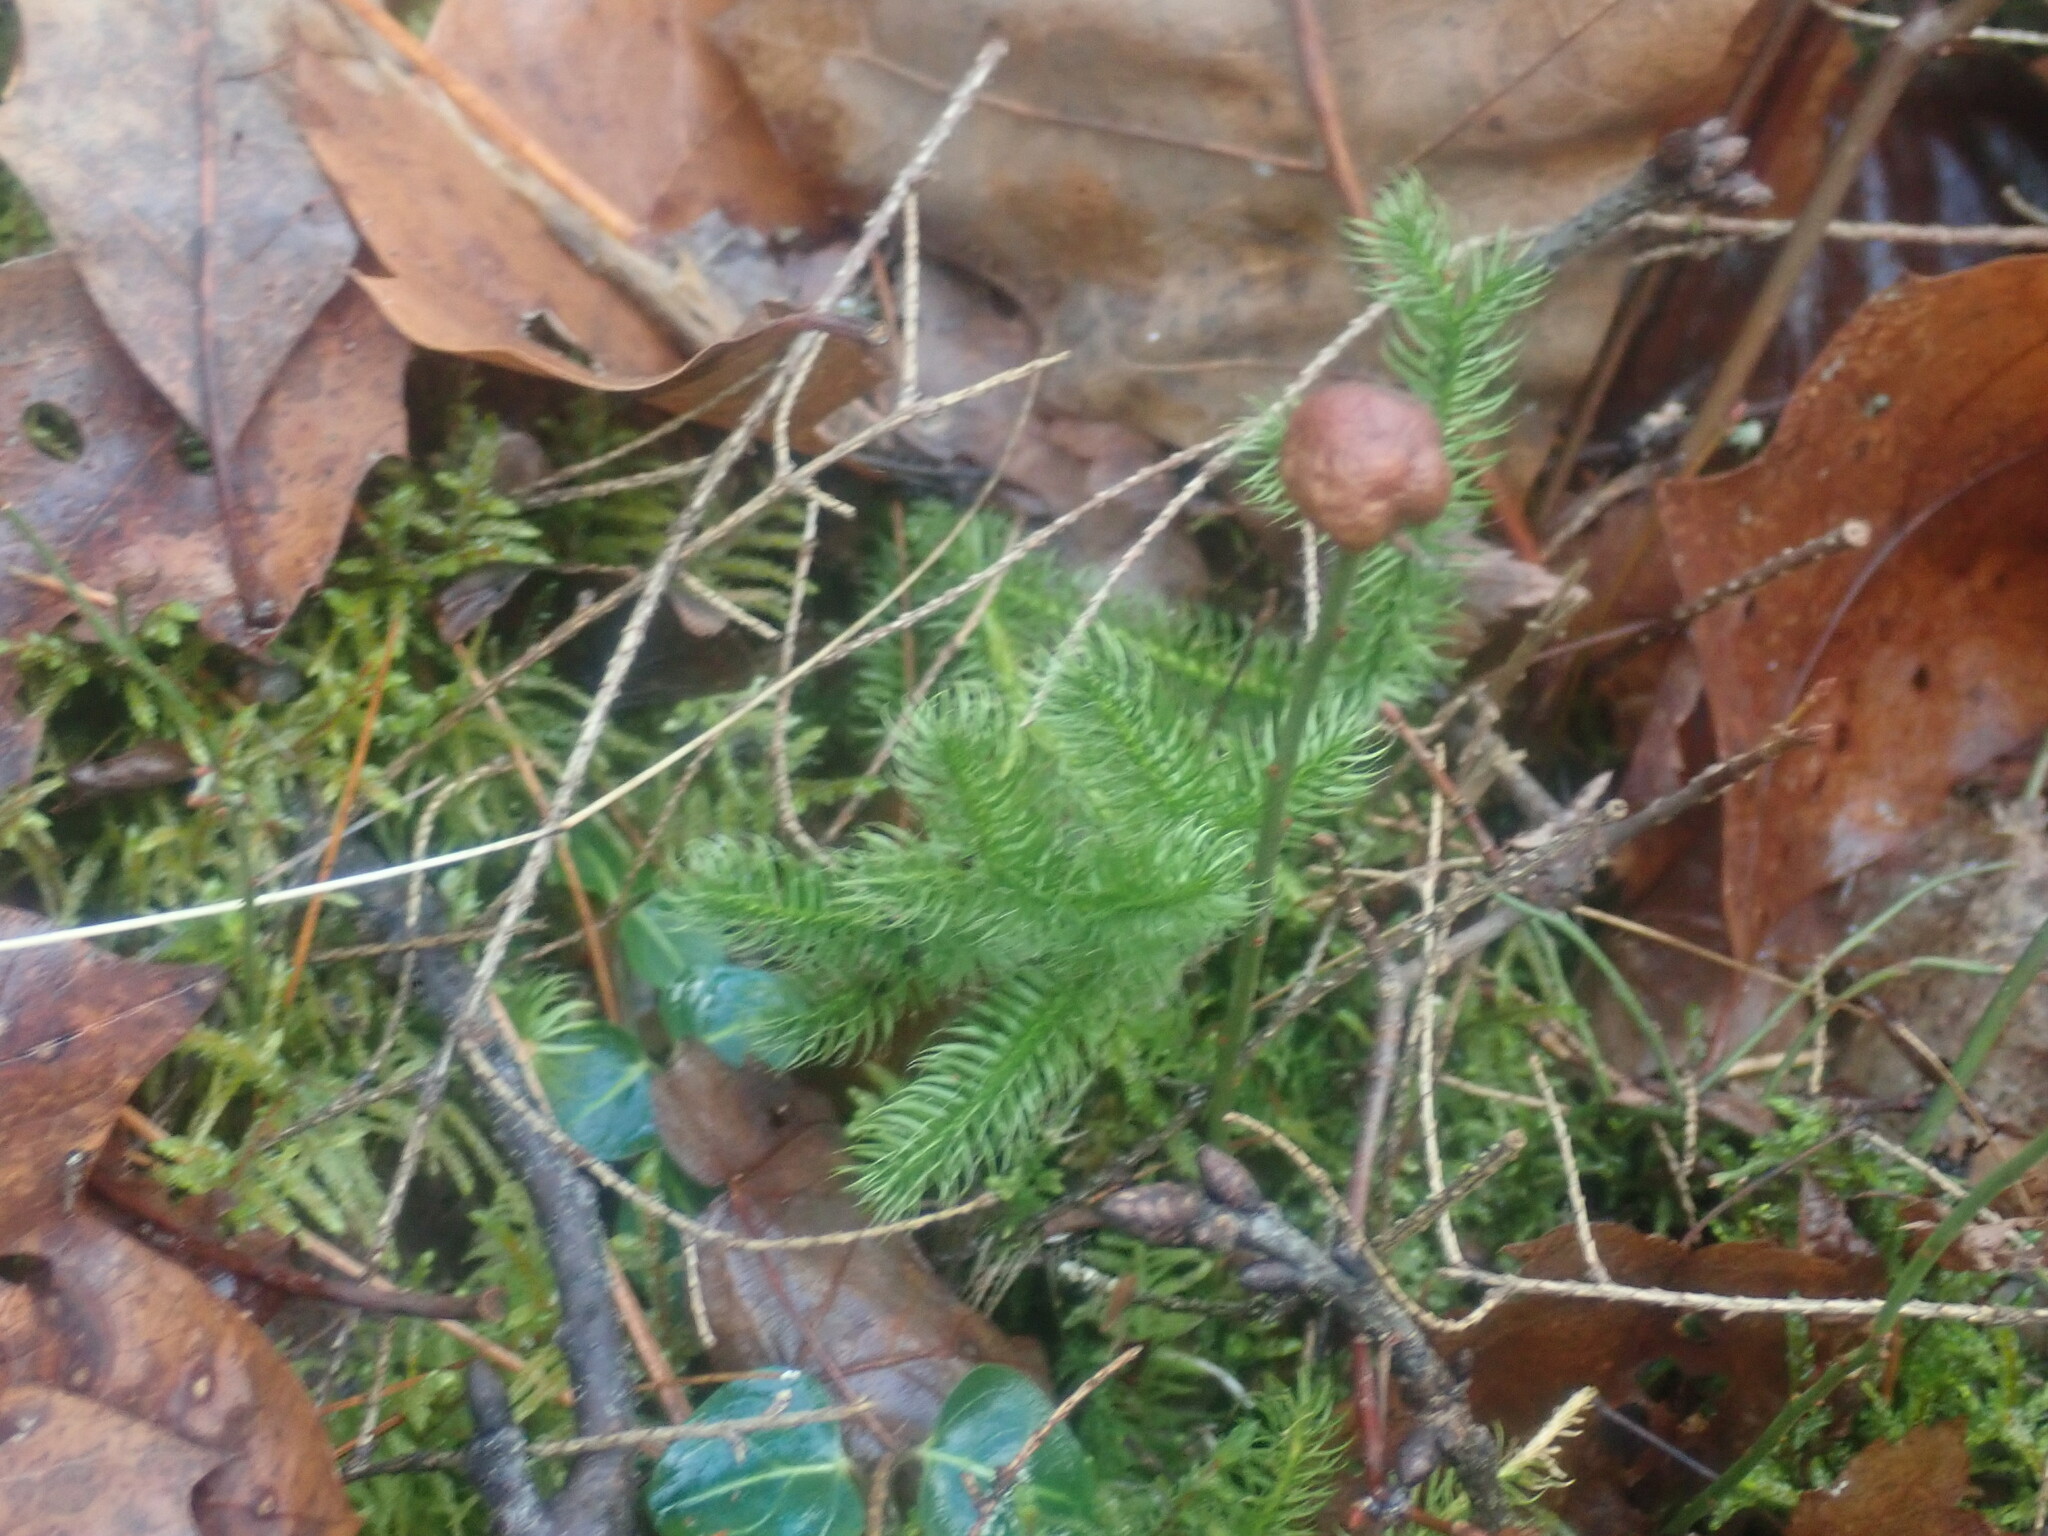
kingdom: Plantae
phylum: Tracheophyta
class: Lycopodiopsida
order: Lycopodiales
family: Lycopodiaceae
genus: Lycopodium
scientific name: Lycopodium clavatum
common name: Stag's-horn clubmoss
